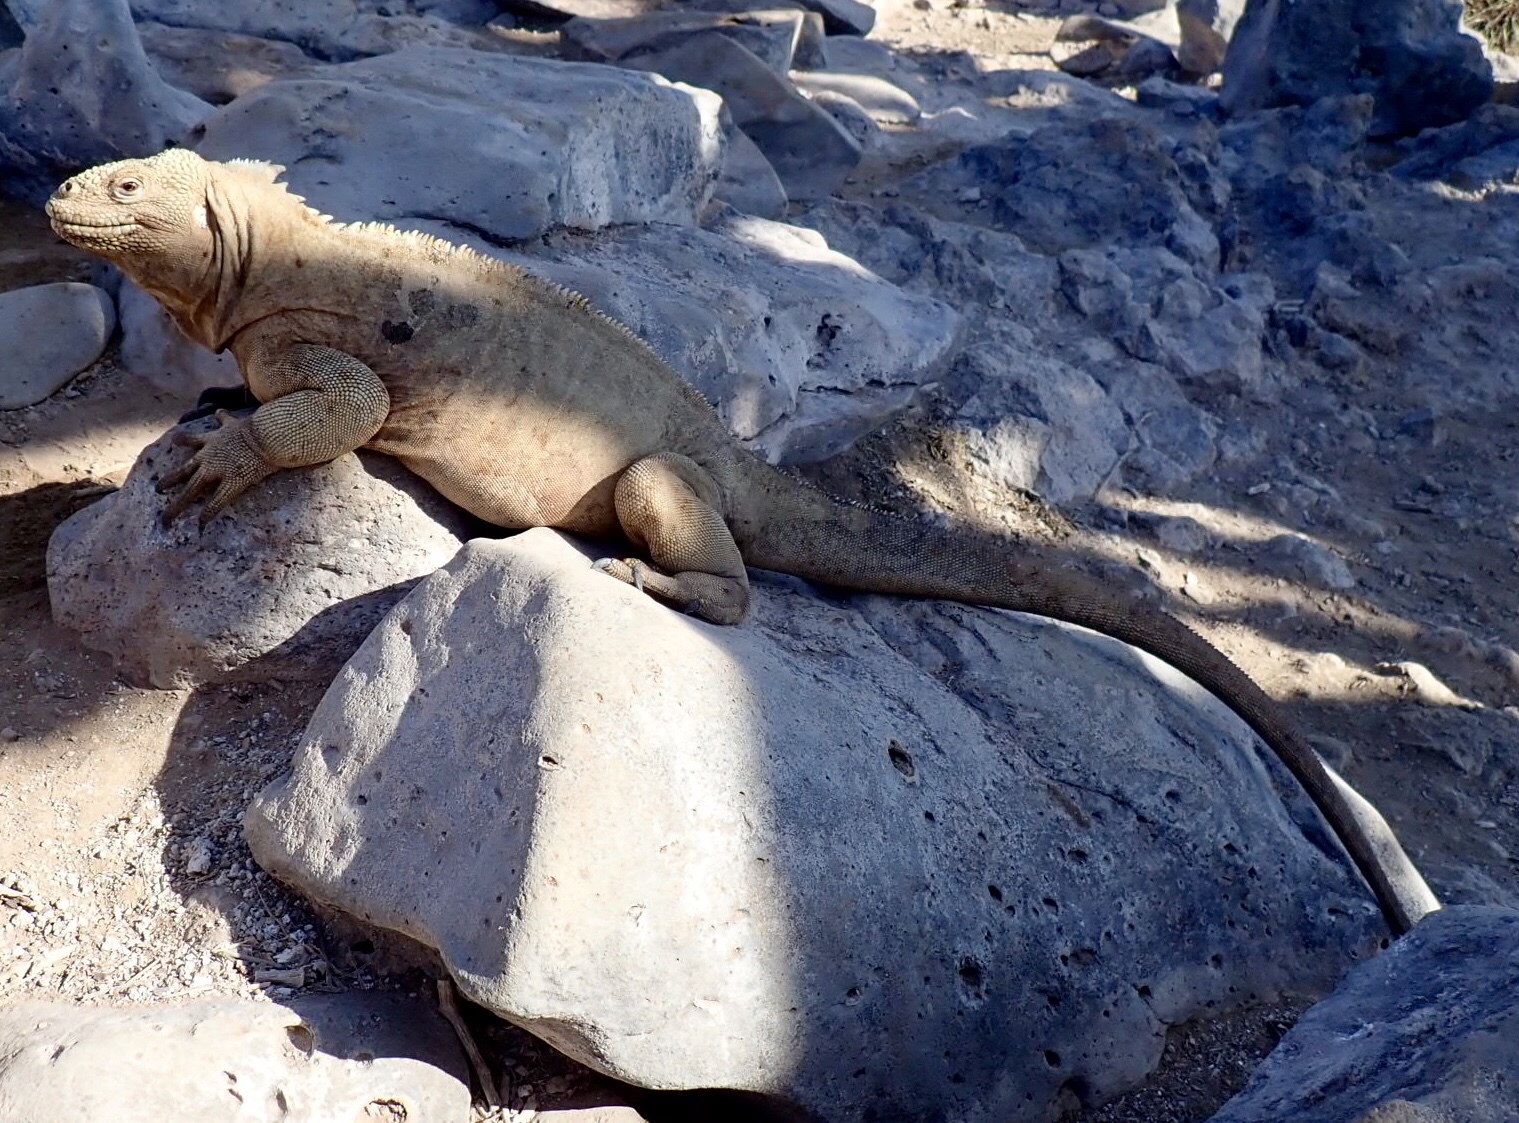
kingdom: Animalia
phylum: Chordata
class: Squamata
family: Iguanidae
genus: Conolophus
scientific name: Conolophus pallidus
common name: Santa fe land iguana
